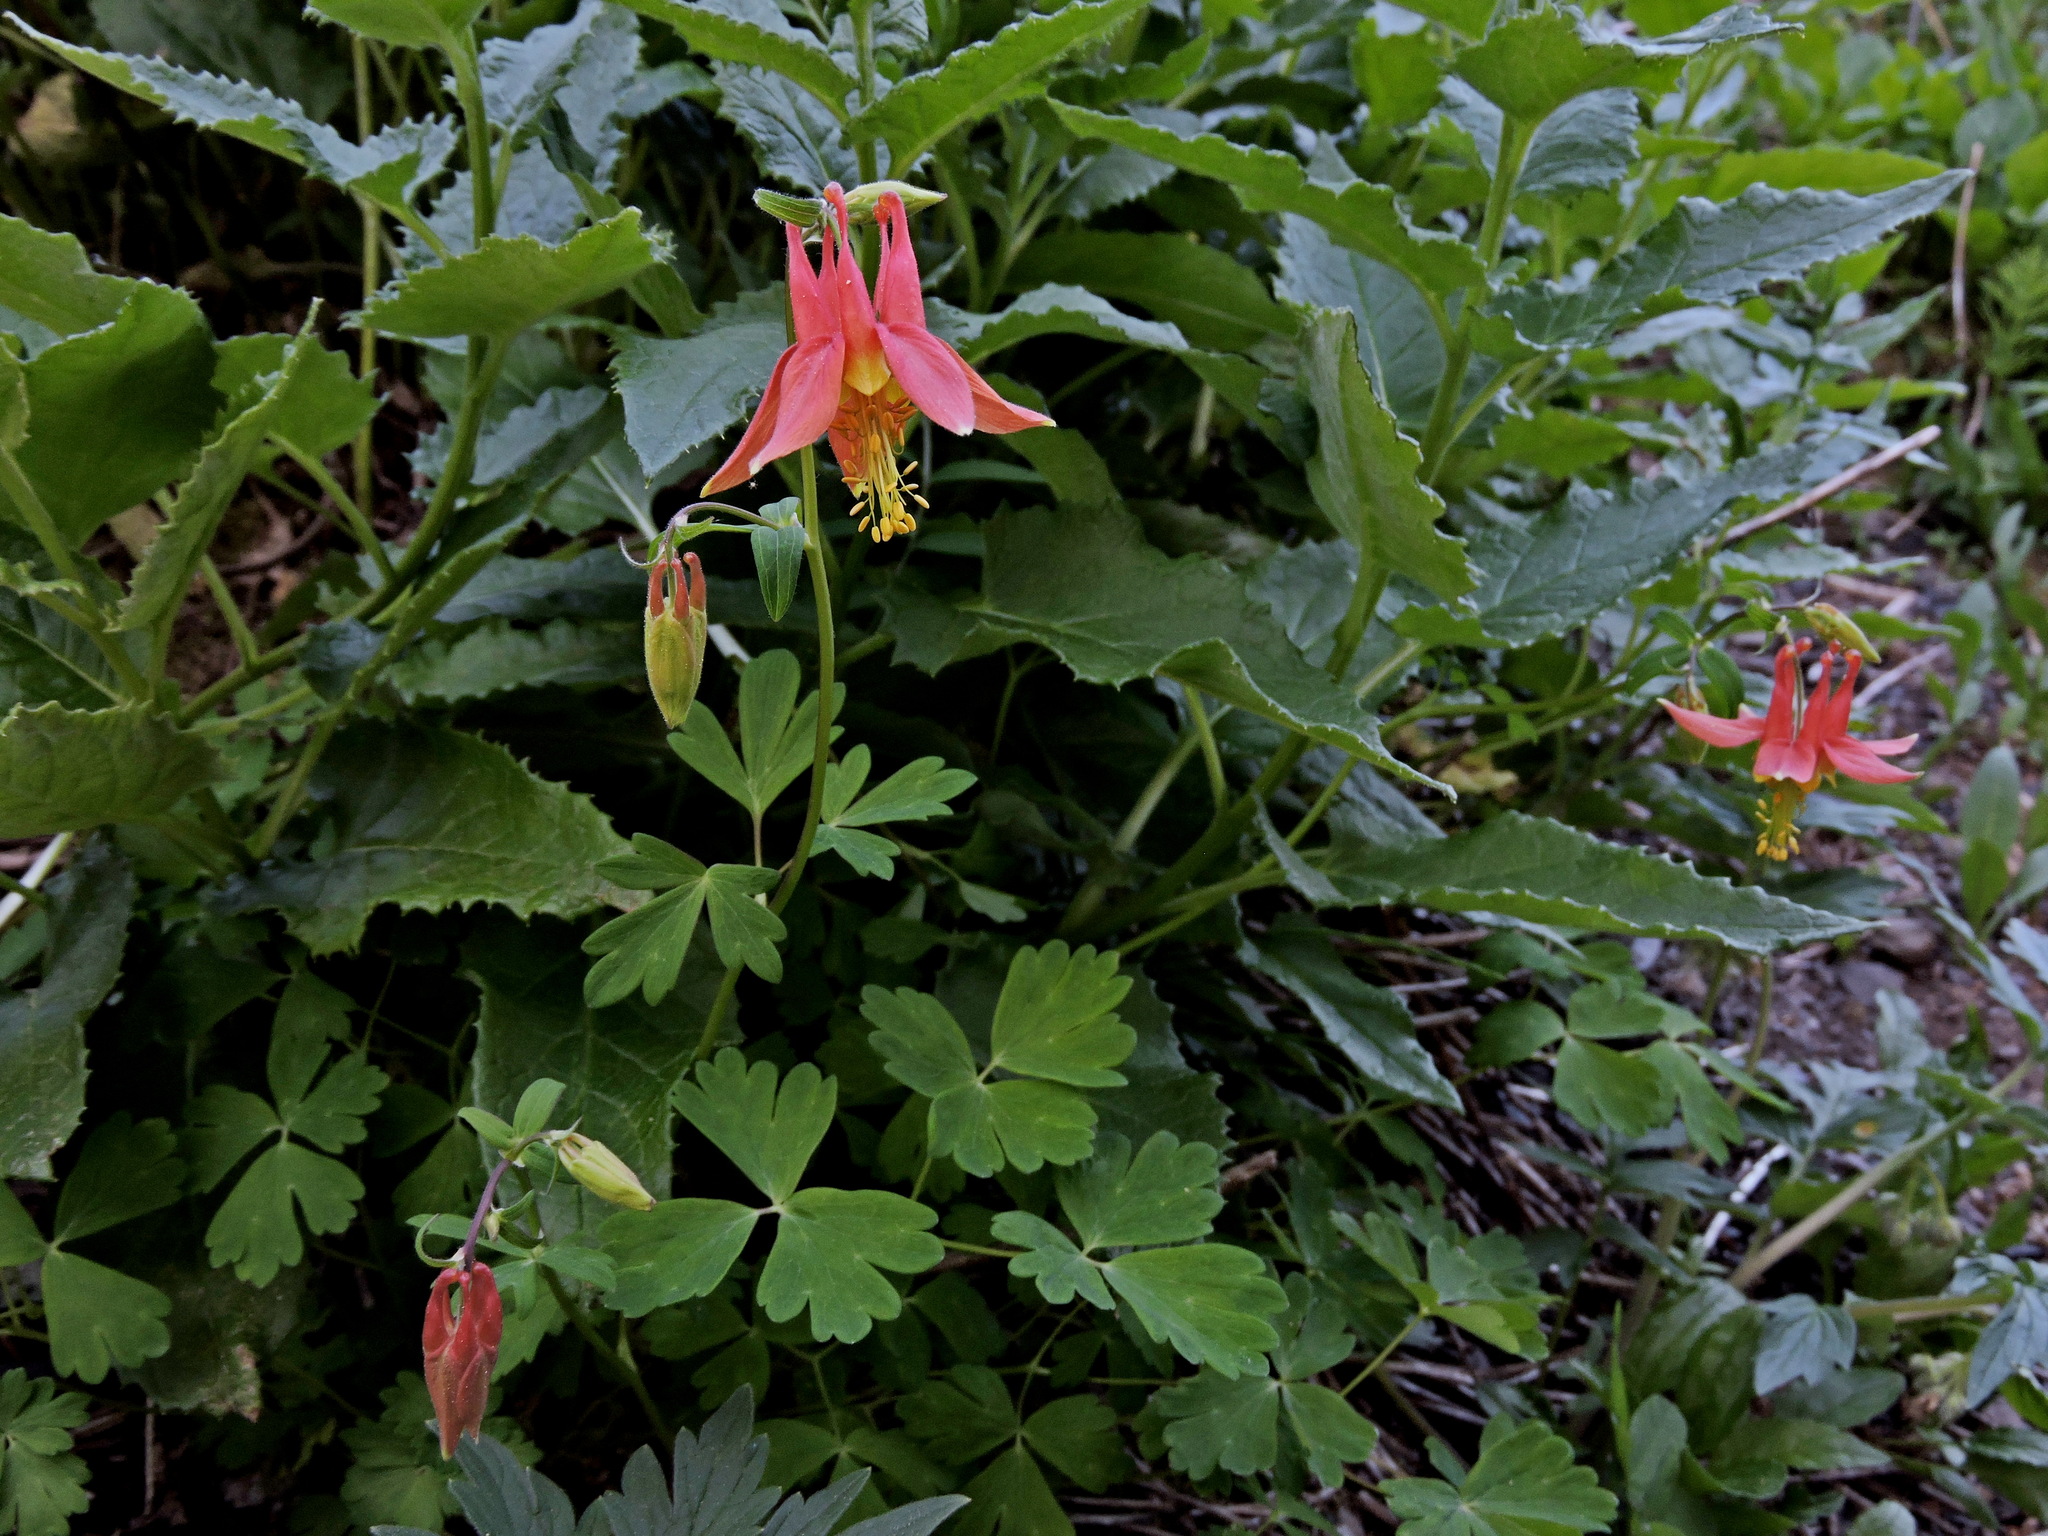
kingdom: Plantae
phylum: Tracheophyta
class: Magnoliopsida
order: Ranunculales
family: Ranunculaceae
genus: Aquilegia
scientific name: Aquilegia formosa
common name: Sitka columbine
